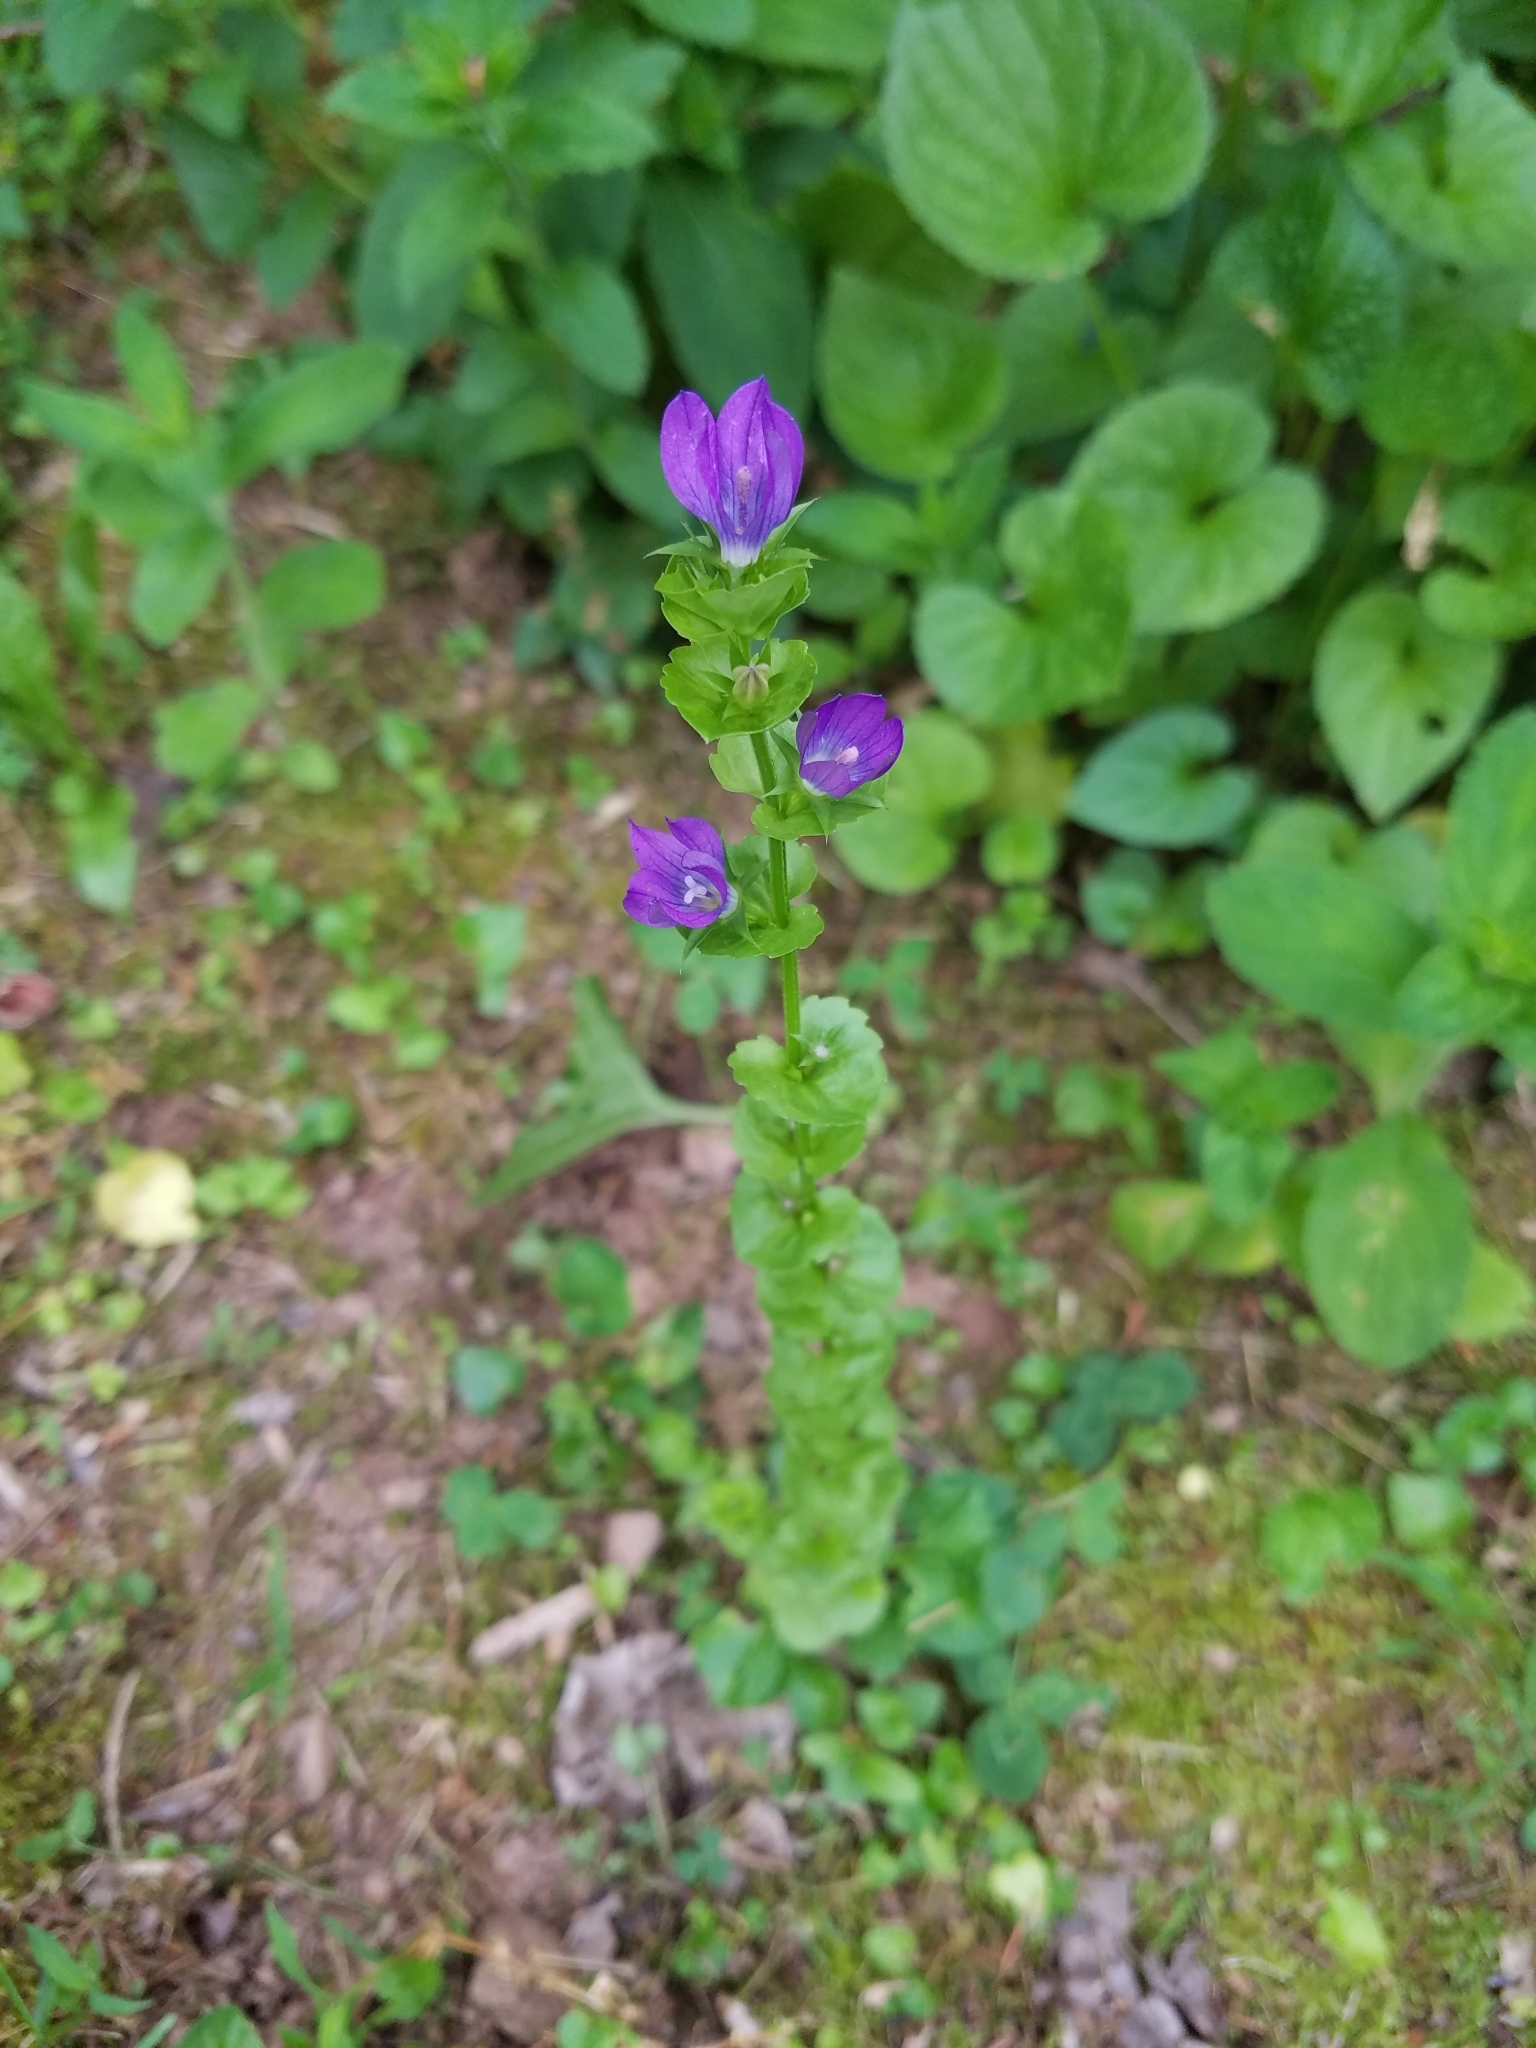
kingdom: Plantae
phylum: Tracheophyta
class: Magnoliopsida
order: Asterales
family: Campanulaceae
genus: Triodanis
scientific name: Triodanis perfoliata
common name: Clasping venus' looking-glass
